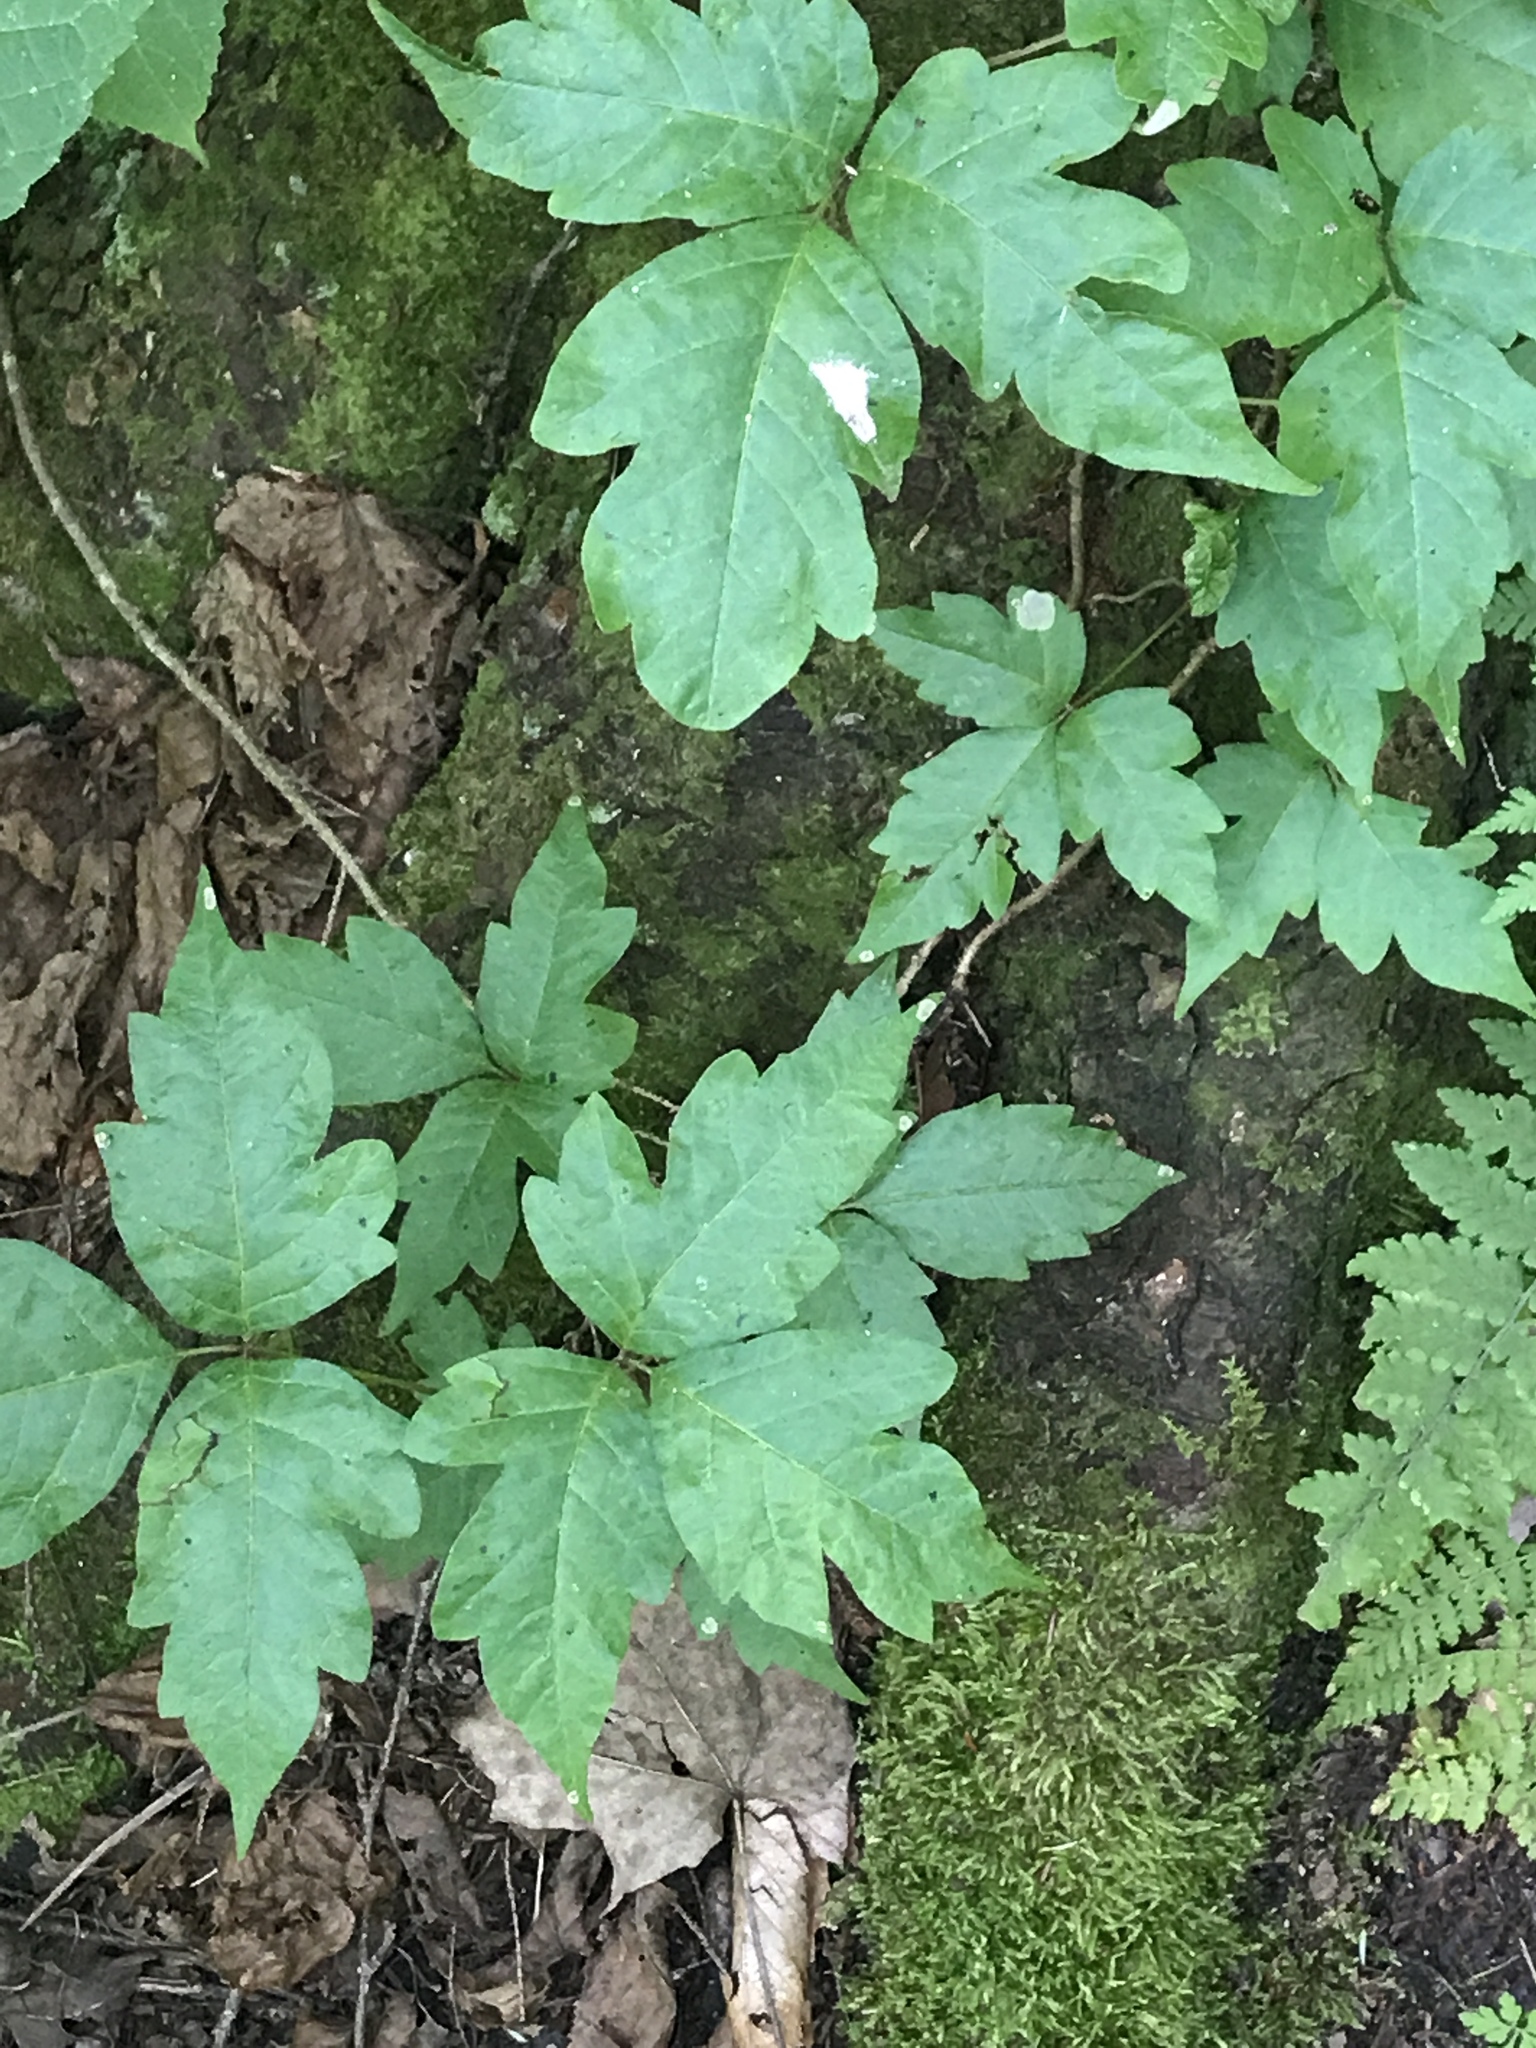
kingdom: Plantae
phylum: Tracheophyta
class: Magnoliopsida
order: Sapindales
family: Anacardiaceae
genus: Toxicodendron
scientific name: Toxicodendron radicans
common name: Poison ivy
